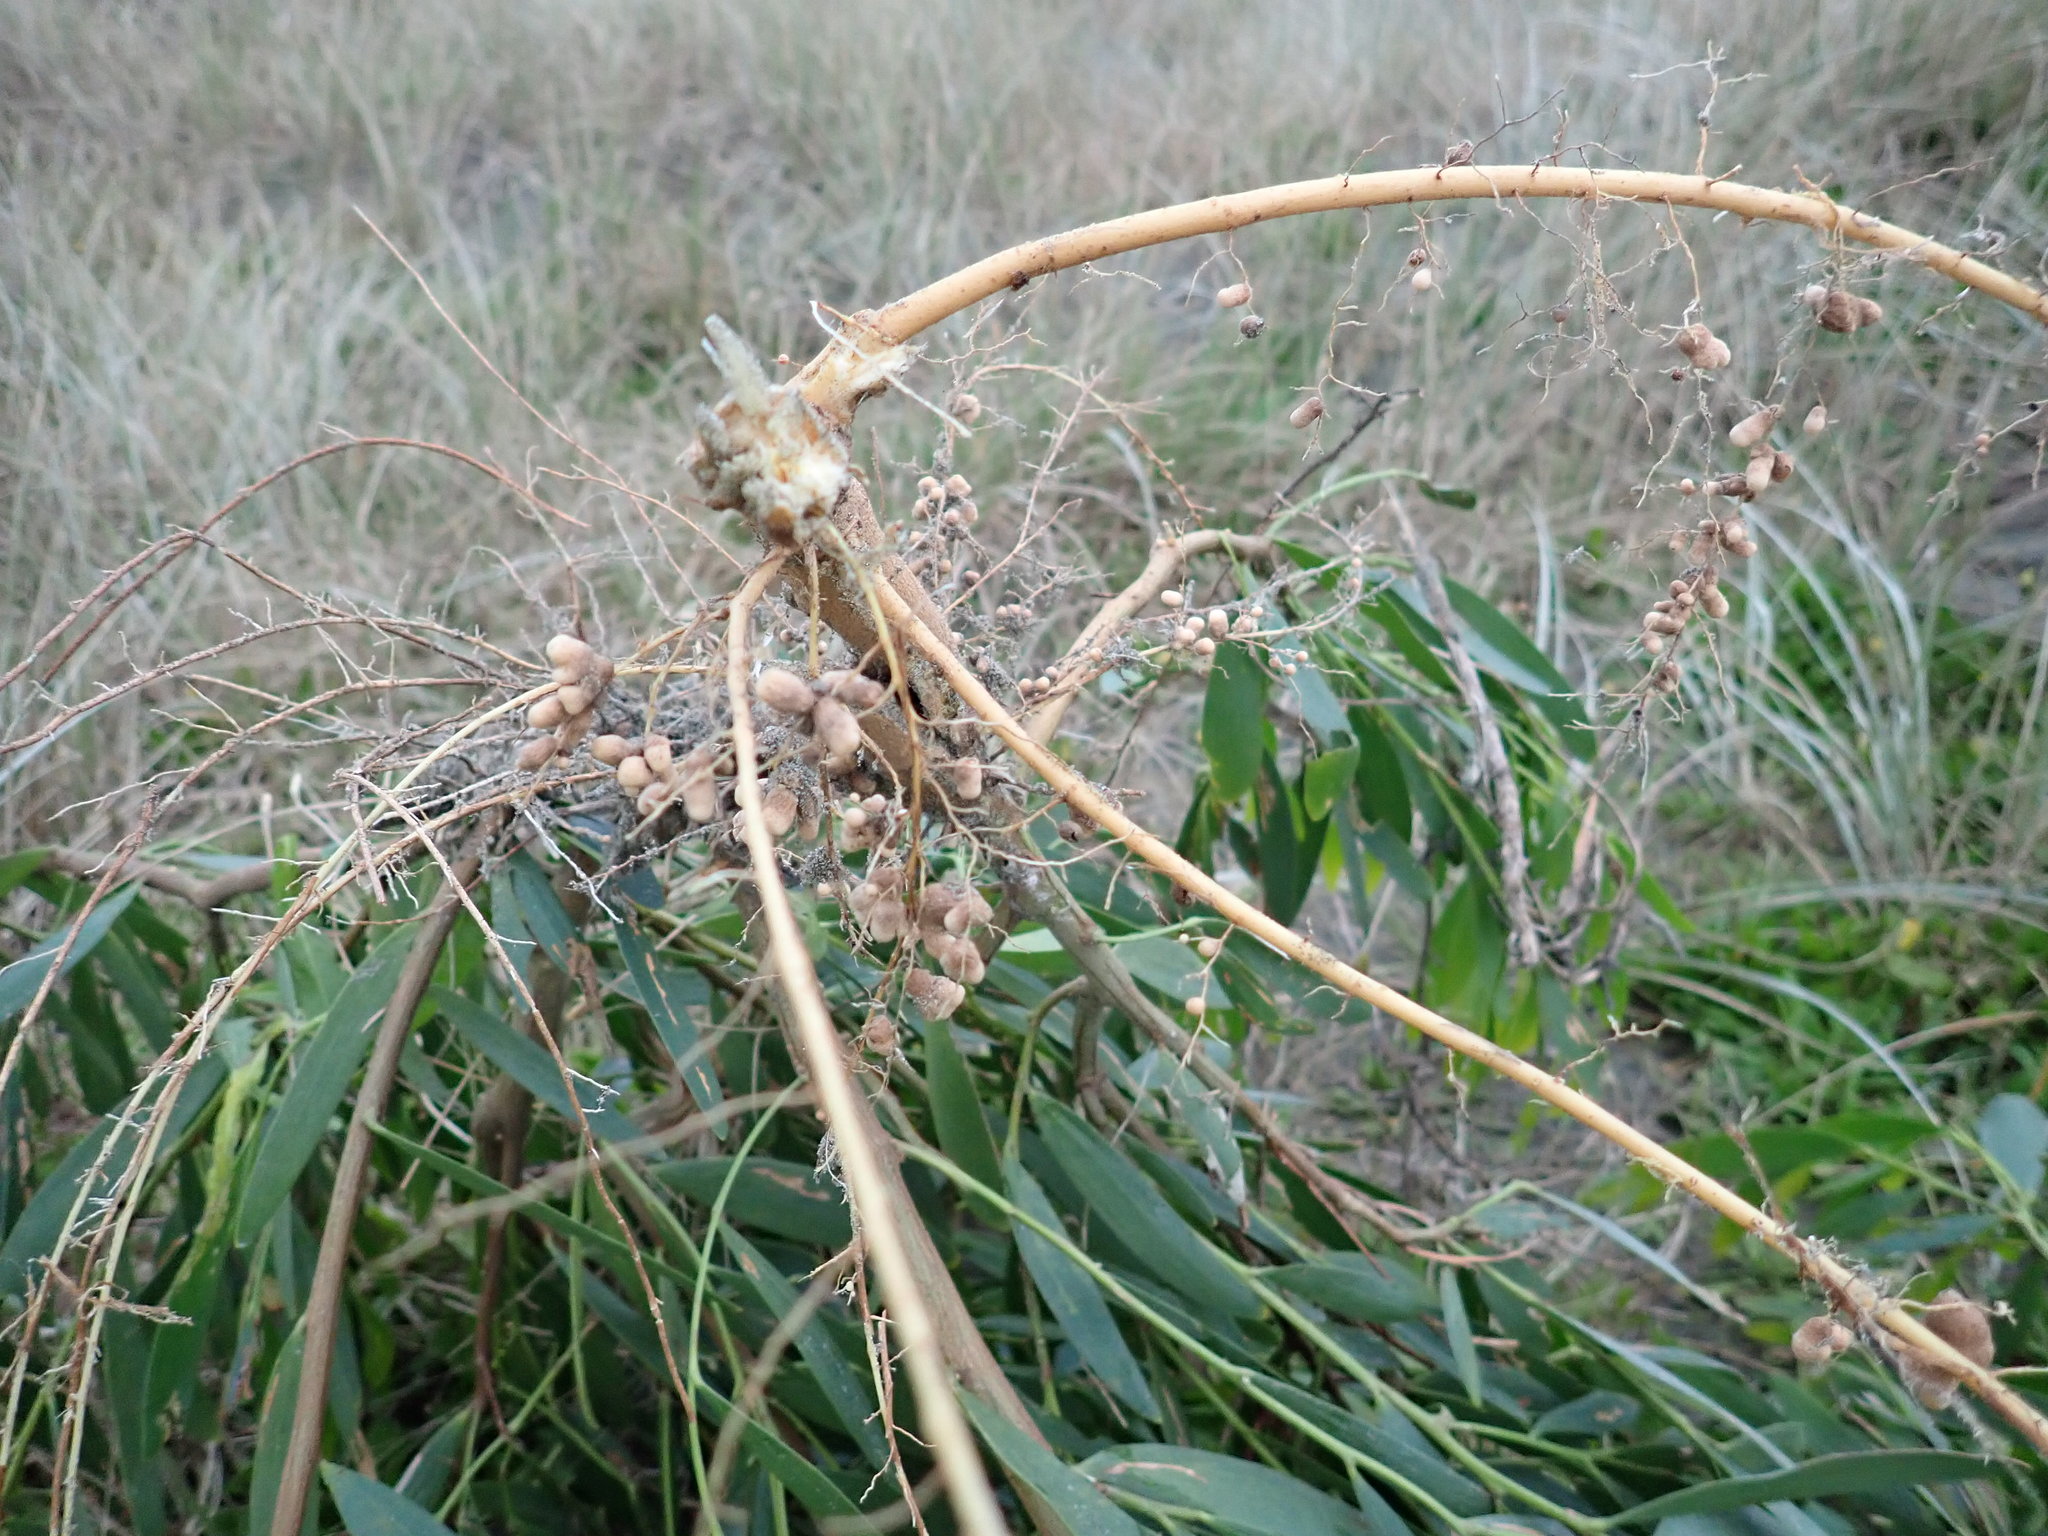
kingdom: Plantae
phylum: Tracheophyta
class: Magnoliopsida
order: Fabales
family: Fabaceae
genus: Acacia
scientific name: Acacia longifolia
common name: Sydney golden wattle
